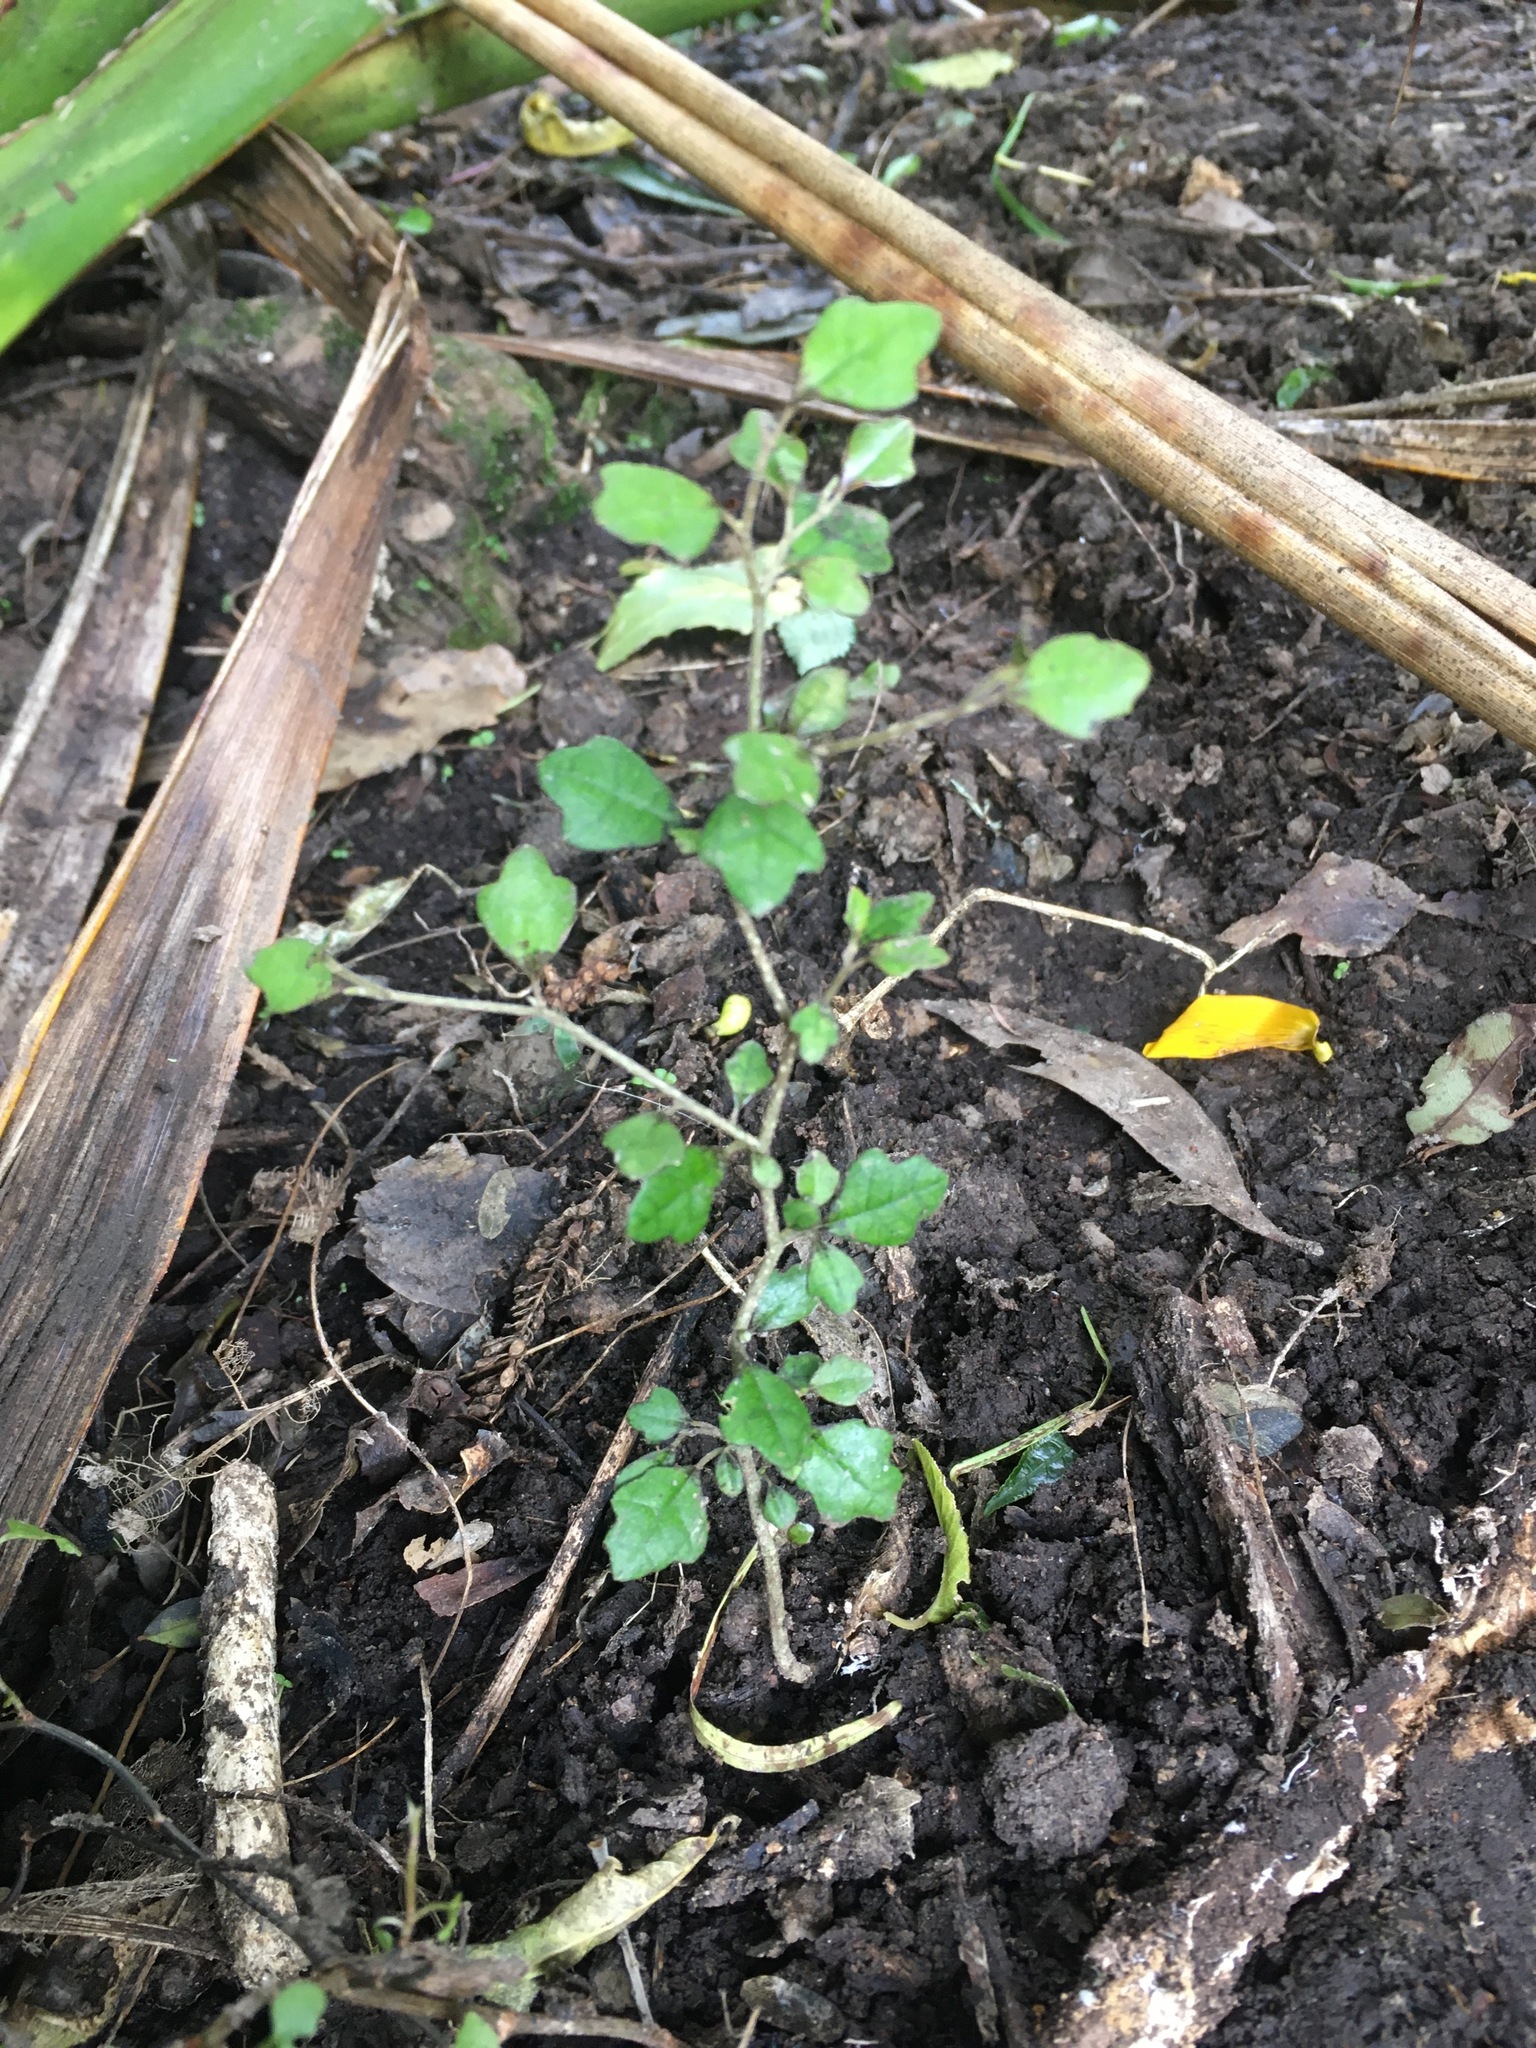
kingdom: Plantae
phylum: Tracheophyta
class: Magnoliopsida
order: Apiales
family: Pennantiaceae
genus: Pennantia
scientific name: Pennantia corymbosa
